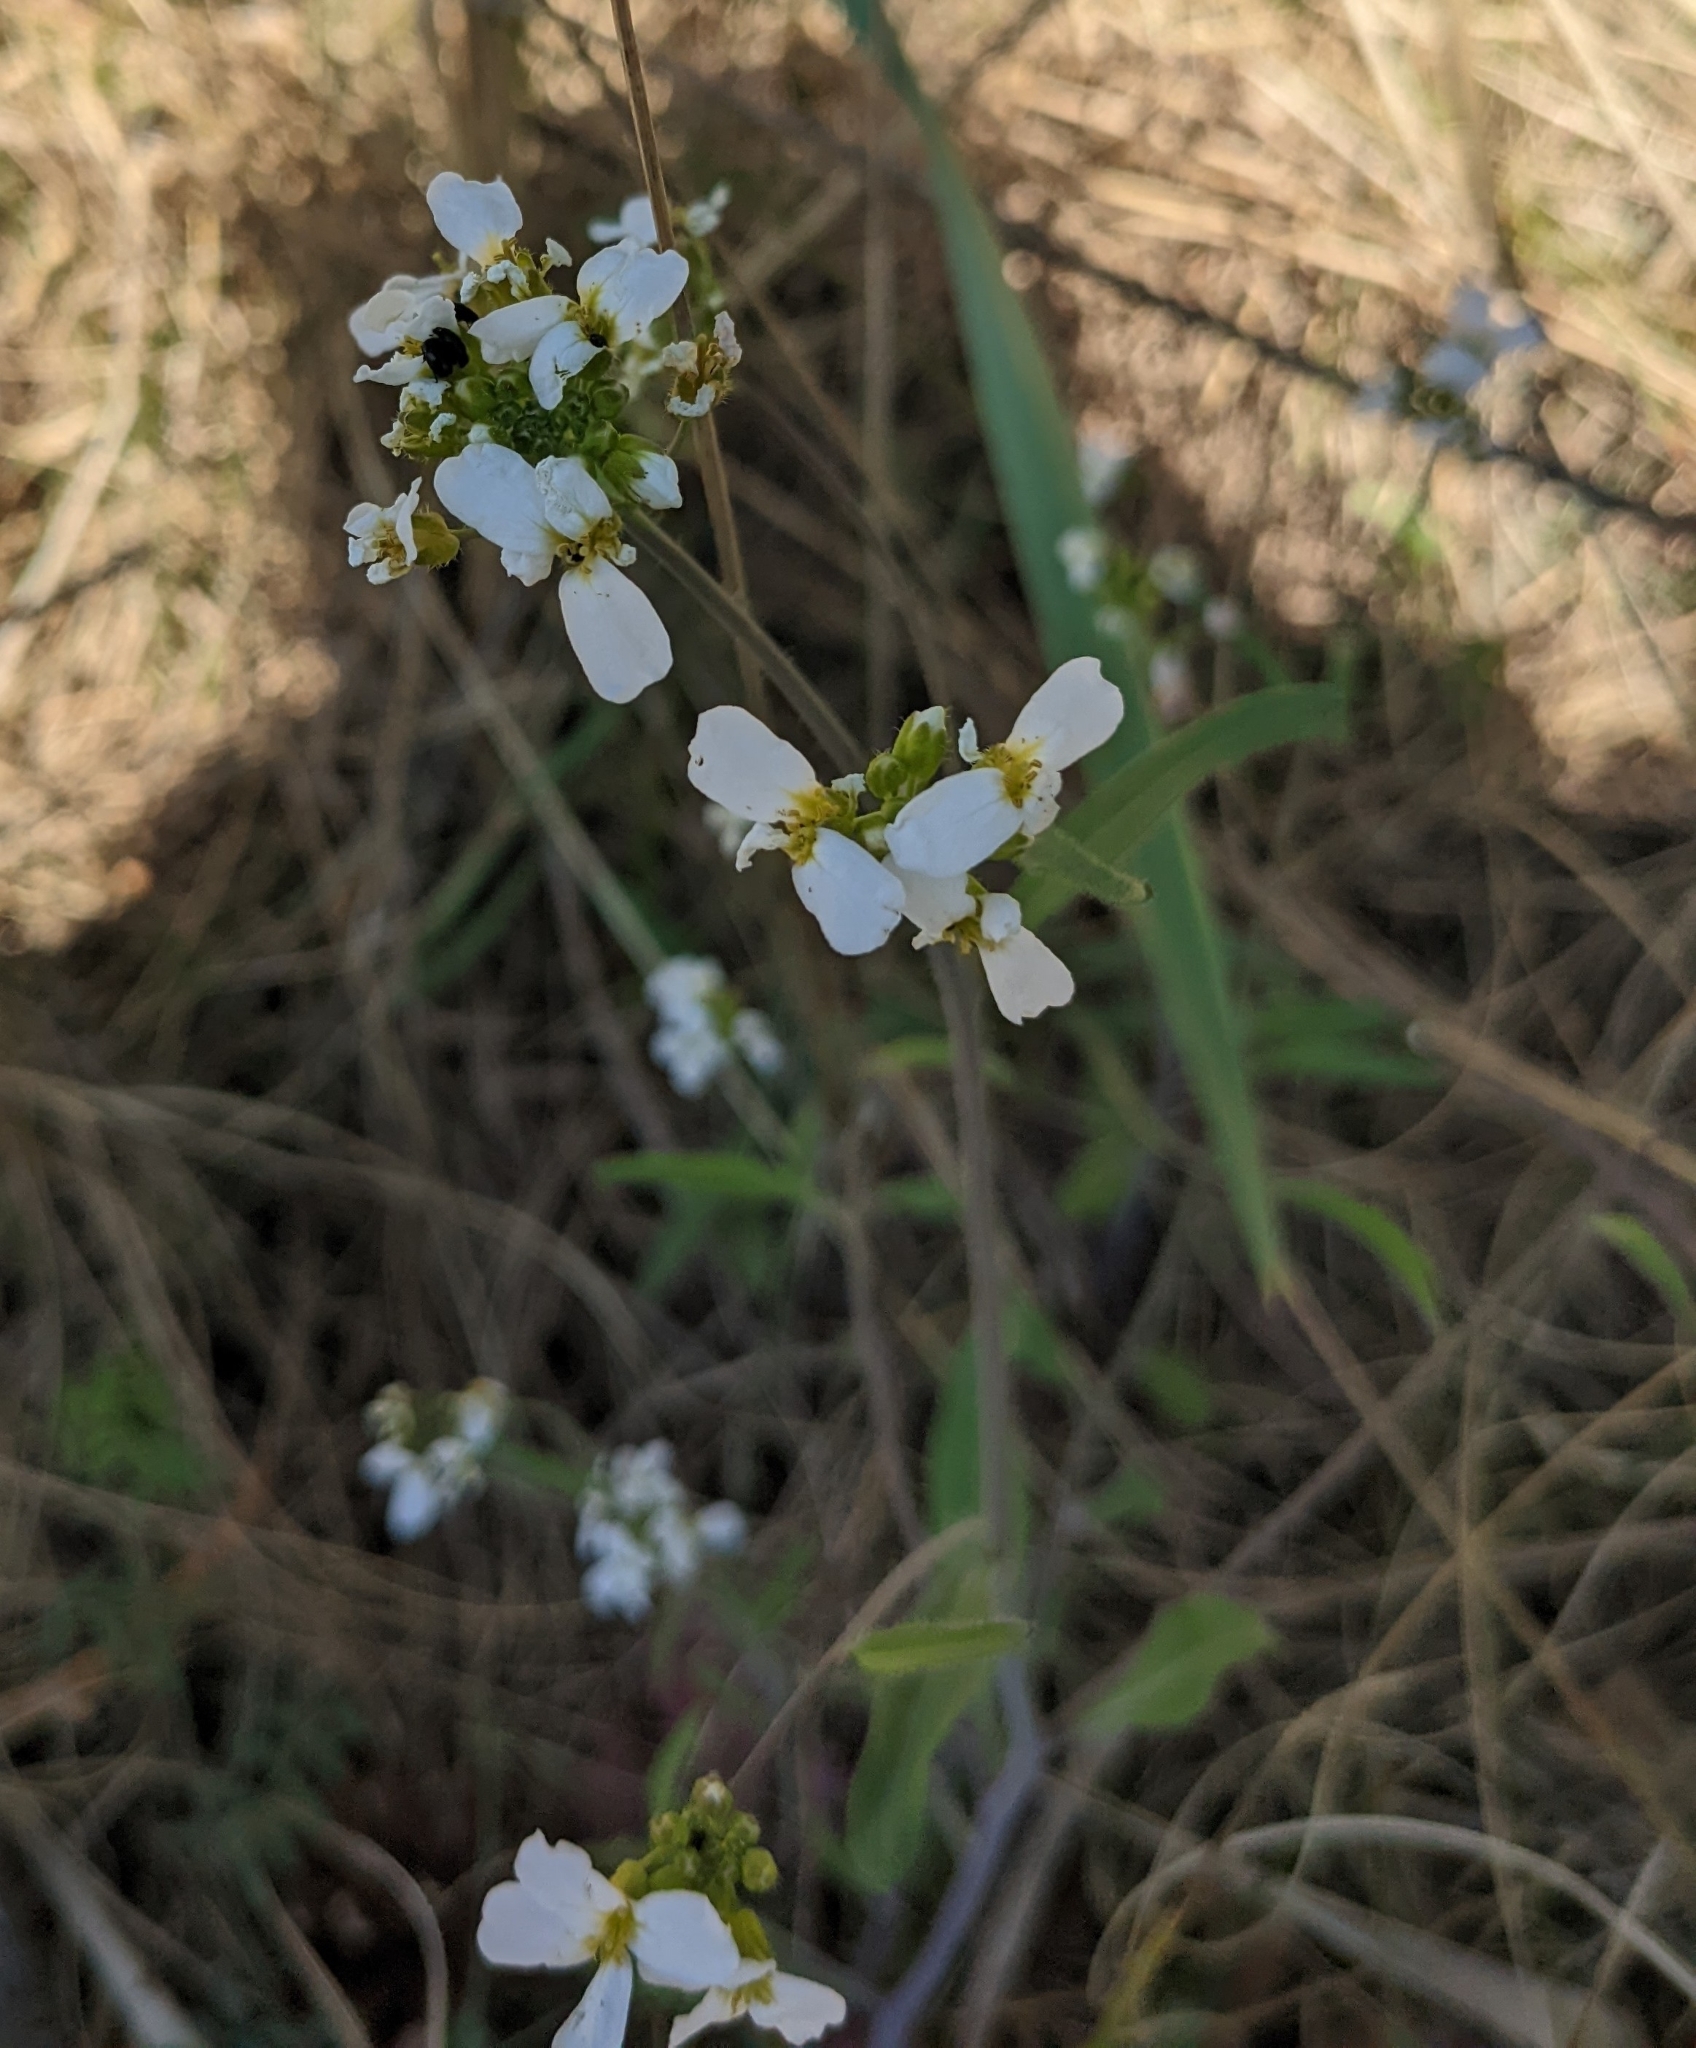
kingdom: Plantae
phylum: Tracheophyta
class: Magnoliopsida
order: Brassicales
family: Brassicaceae
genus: Arabidopsis
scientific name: Arabidopsis arenosa
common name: Sand rock-cress
